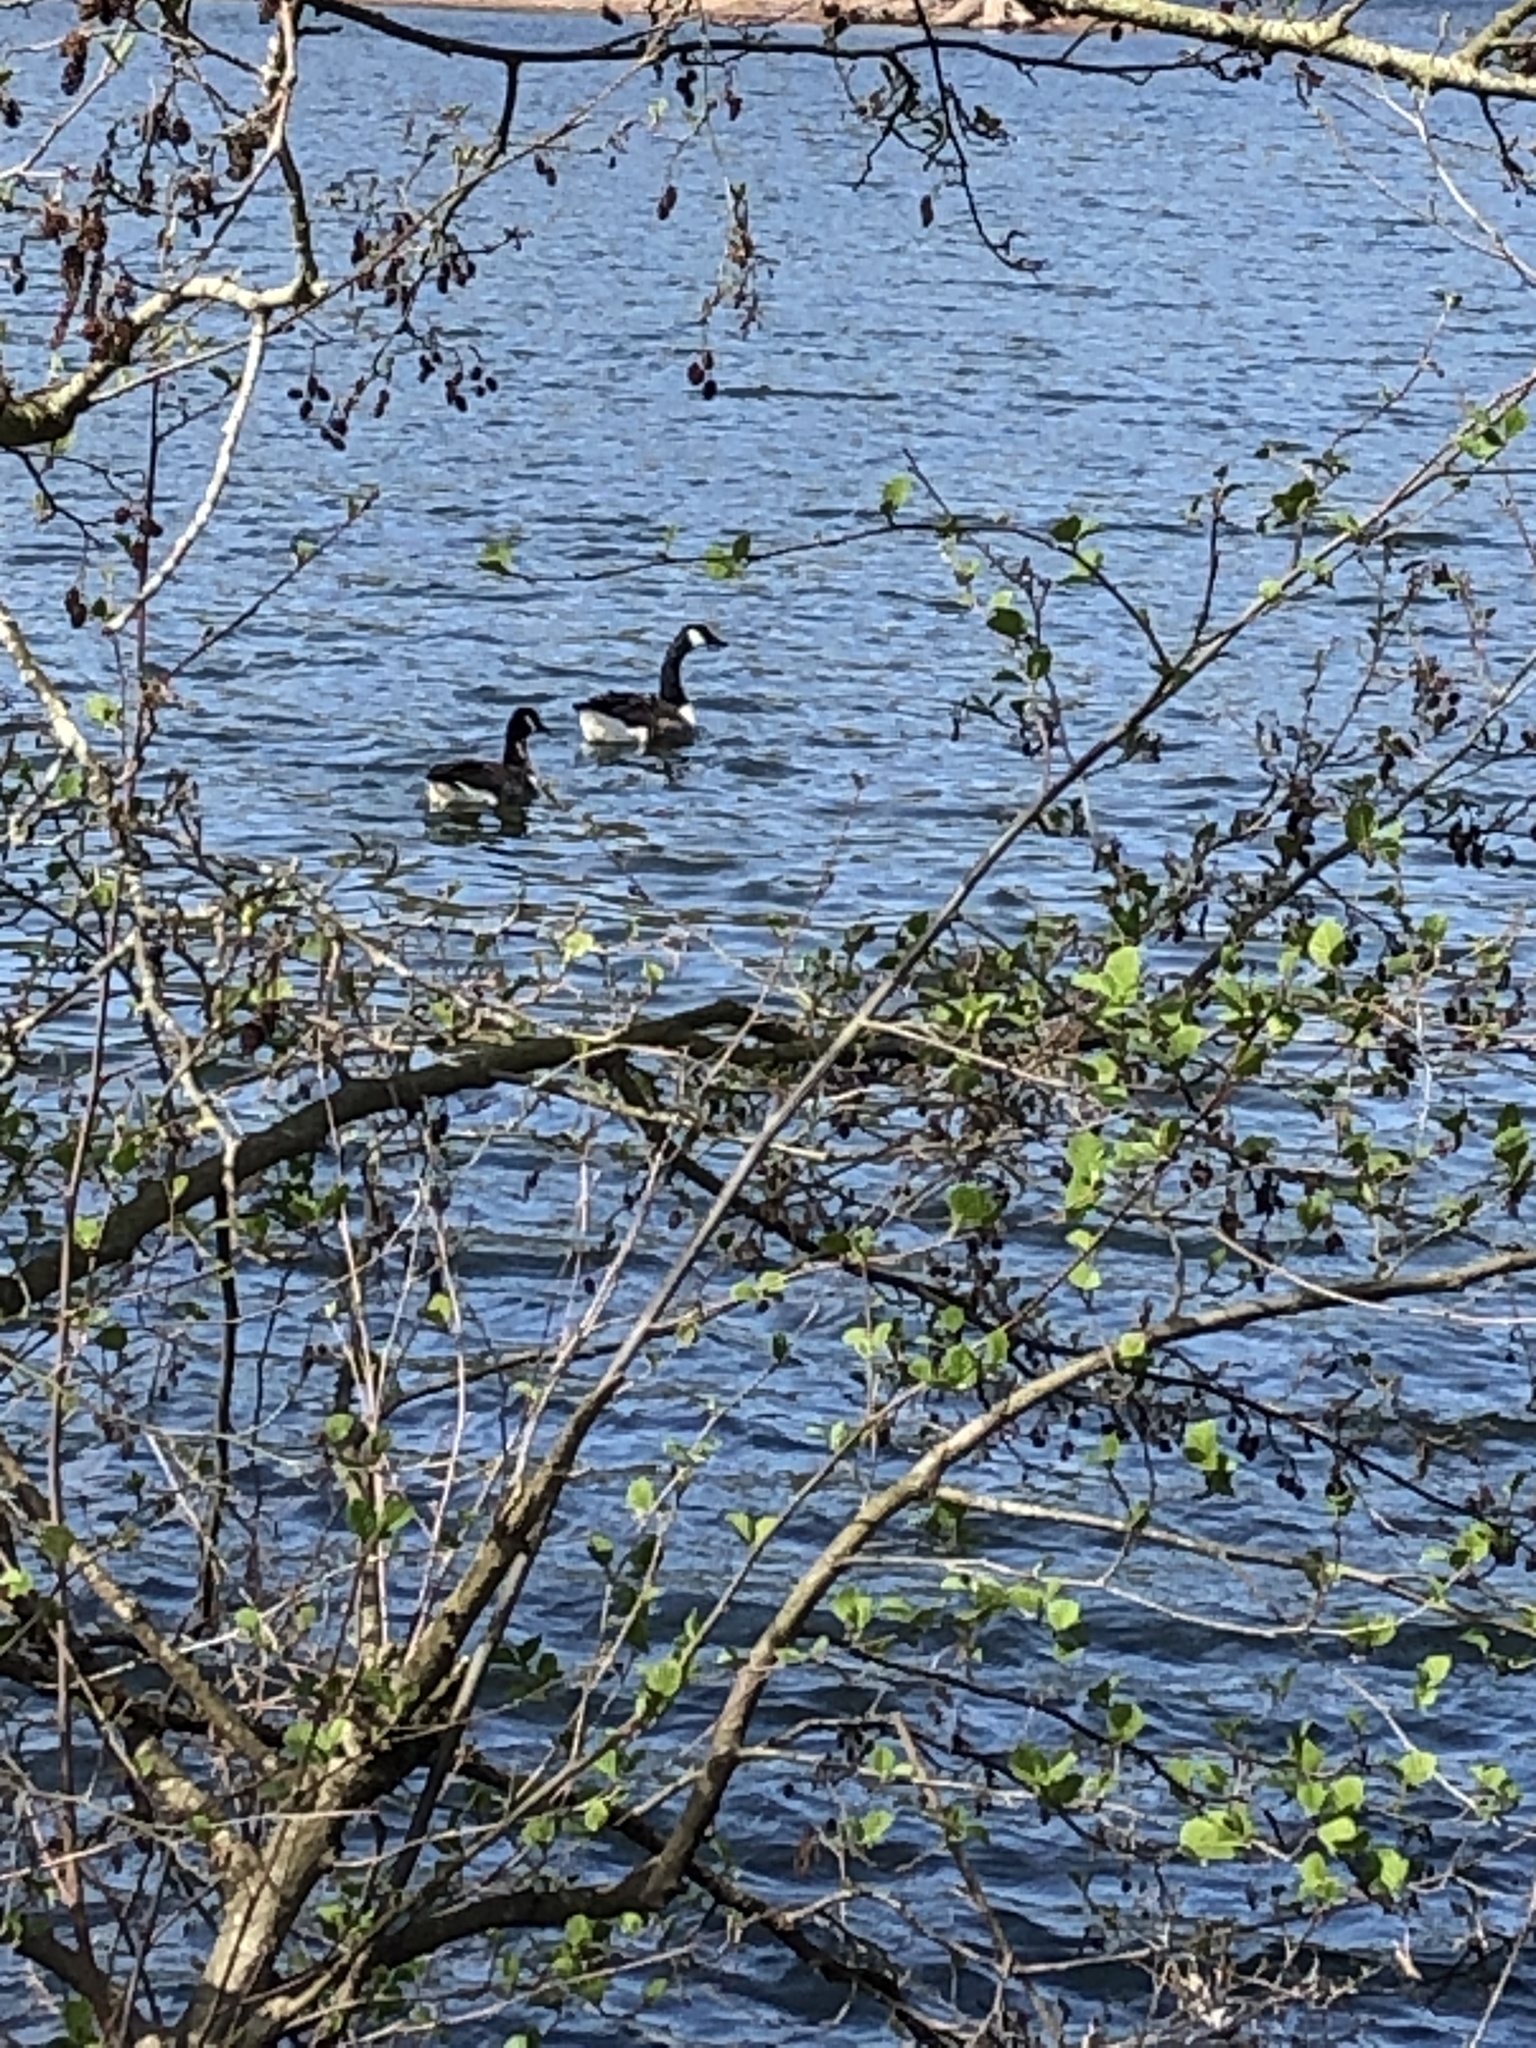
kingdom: Animalia
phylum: Chordata
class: Aves
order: Anseriformes
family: Anatidae
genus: Branta
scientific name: Branta canadensis
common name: Canada goose
